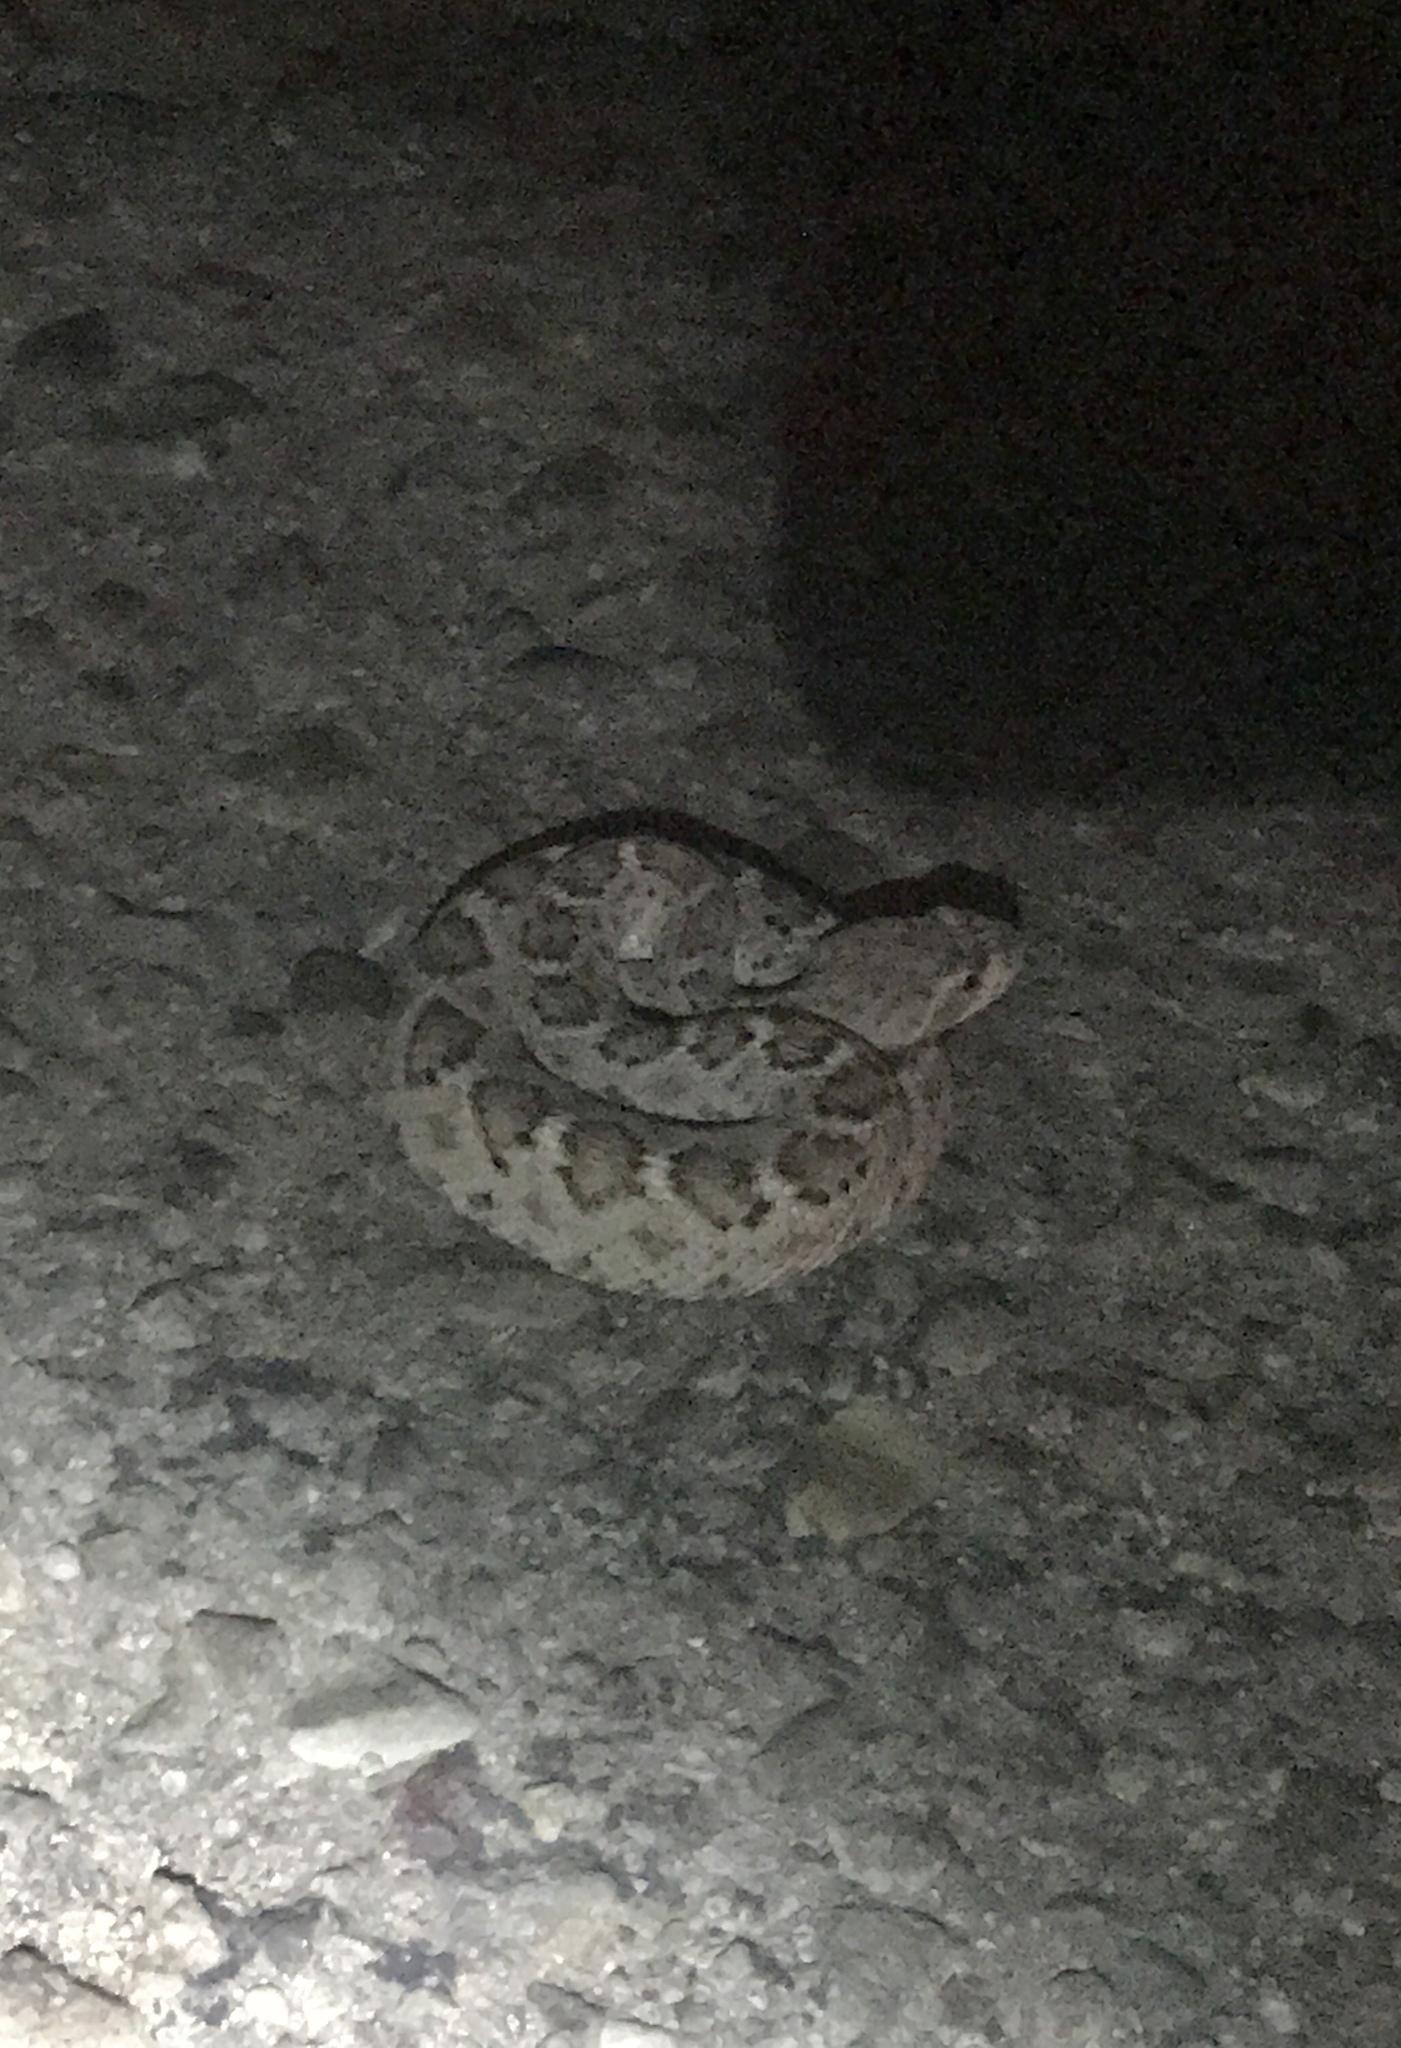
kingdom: Animalia
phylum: Chordata
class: Squamata
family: Viperidae
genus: Crotalus
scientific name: Crotalus atrox
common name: Western diamond-backed rattlesnake
